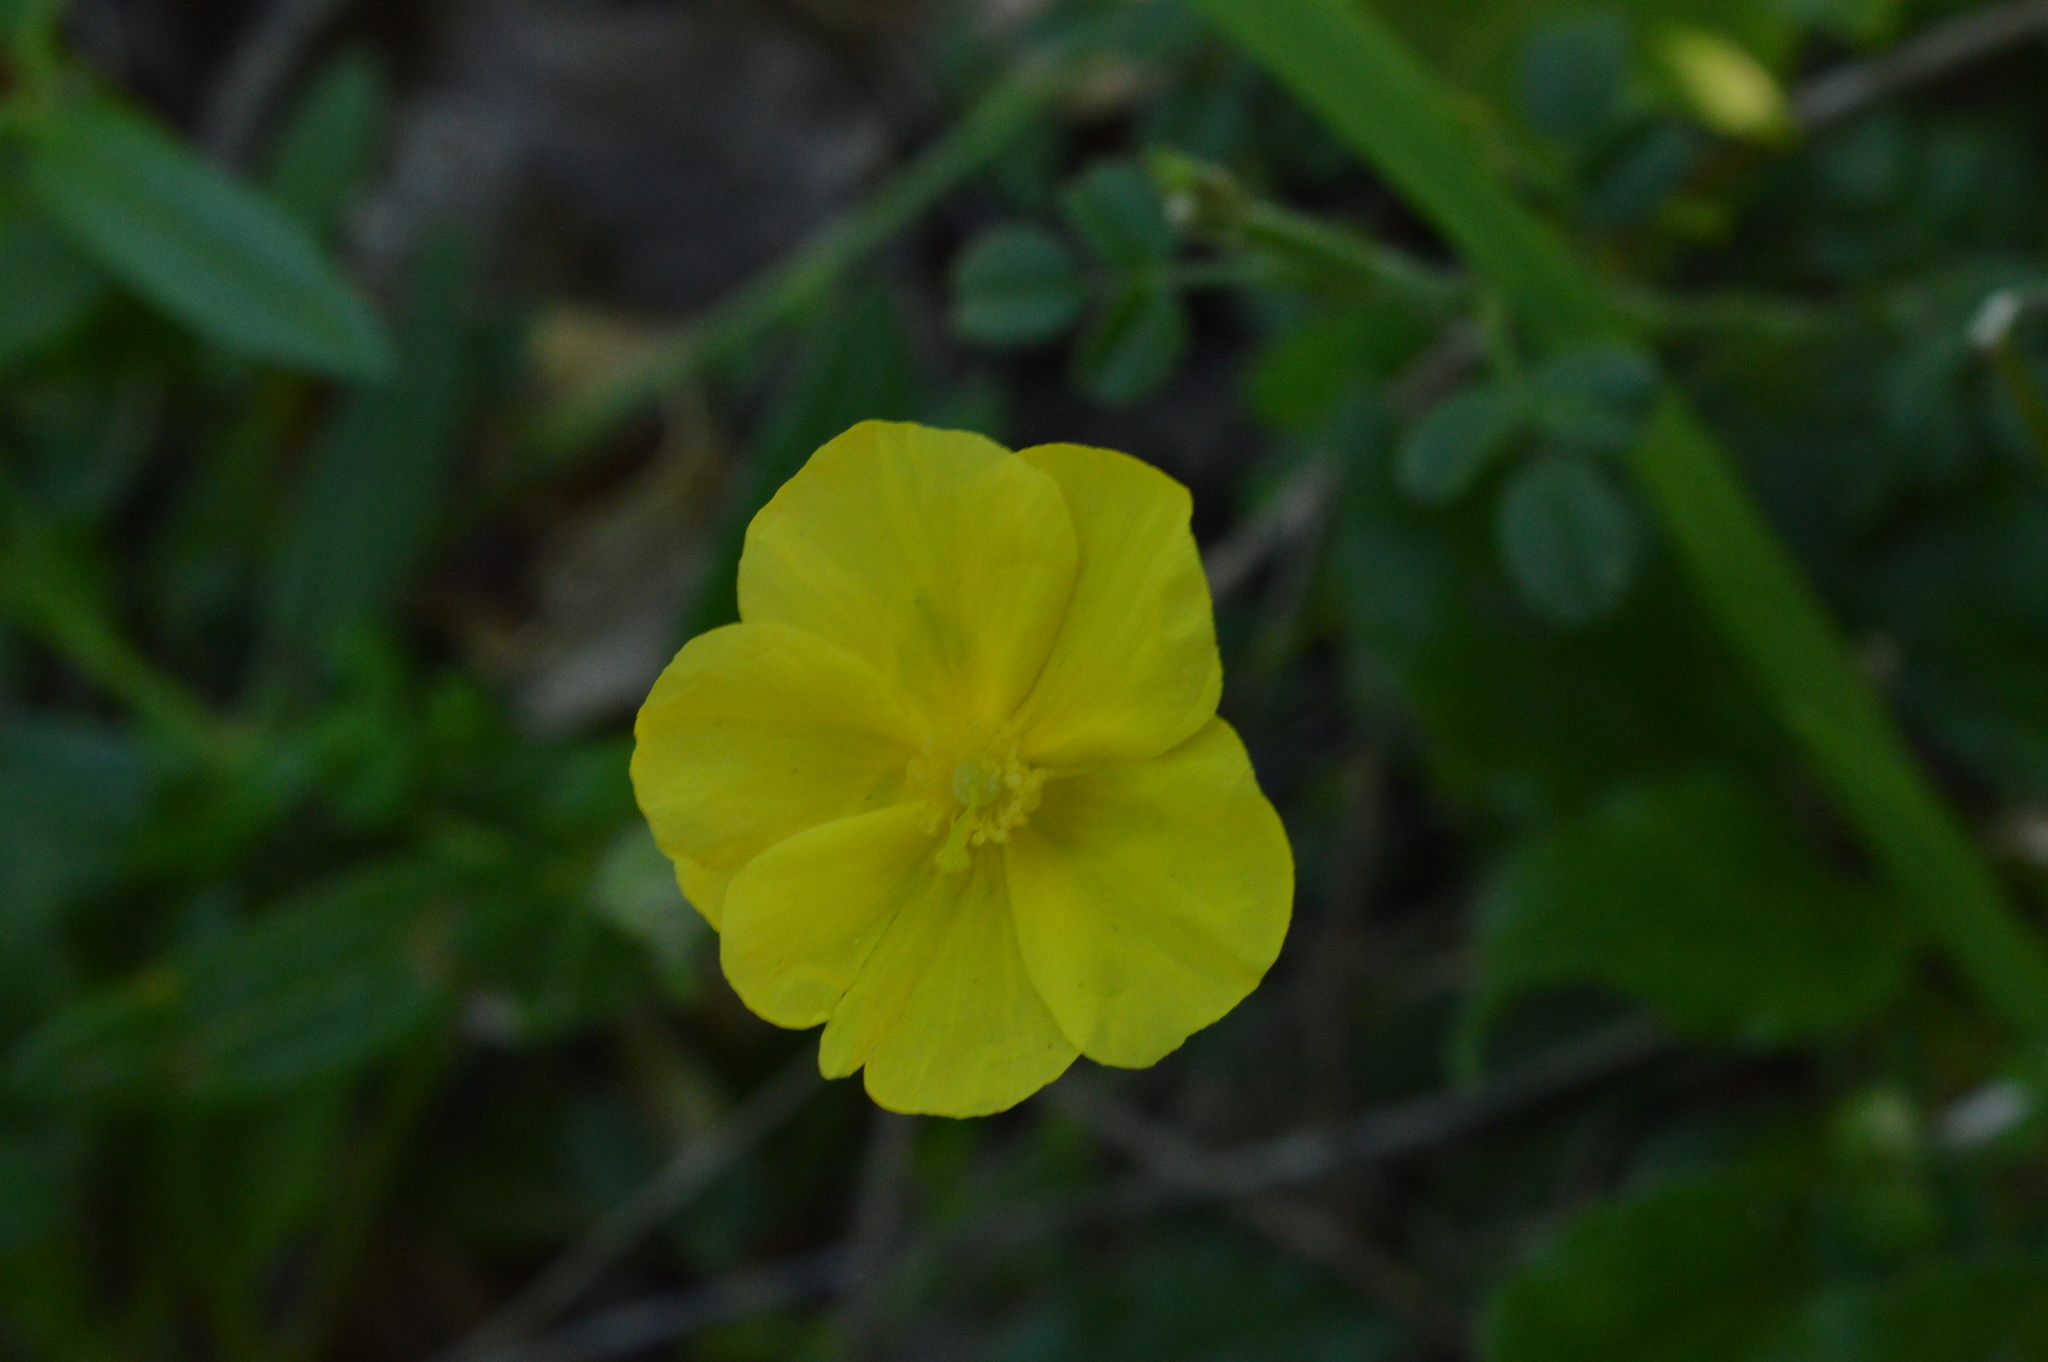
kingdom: Plantae
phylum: Tracheophyta
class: Magnoliopsida
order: Malvales
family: Cistaceae
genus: Helianthemum
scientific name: Helianthemum nummularium
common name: Common rock-rose
